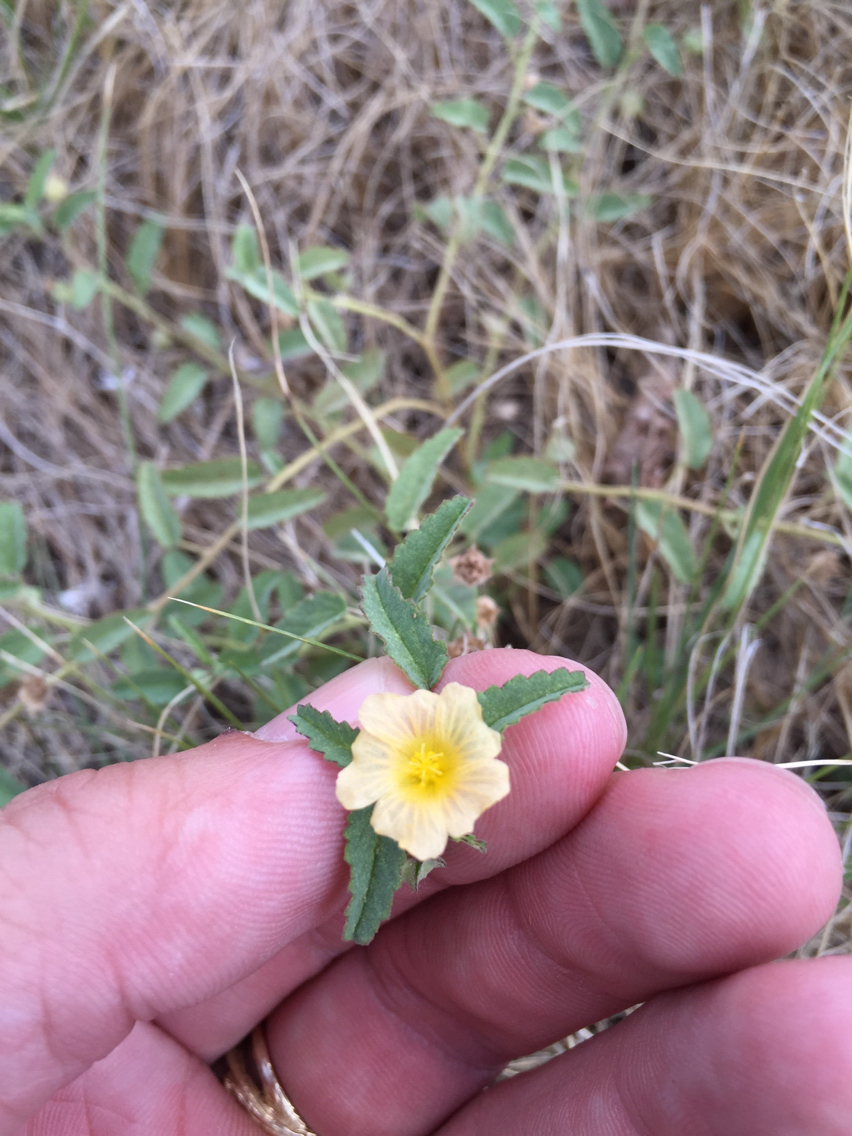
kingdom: Plantae
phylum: Tracheophyta
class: Magnoliopsida
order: Malvales
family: Malvaceae
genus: Sida
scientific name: Sida abutilifolia
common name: Spreading fanpetals
